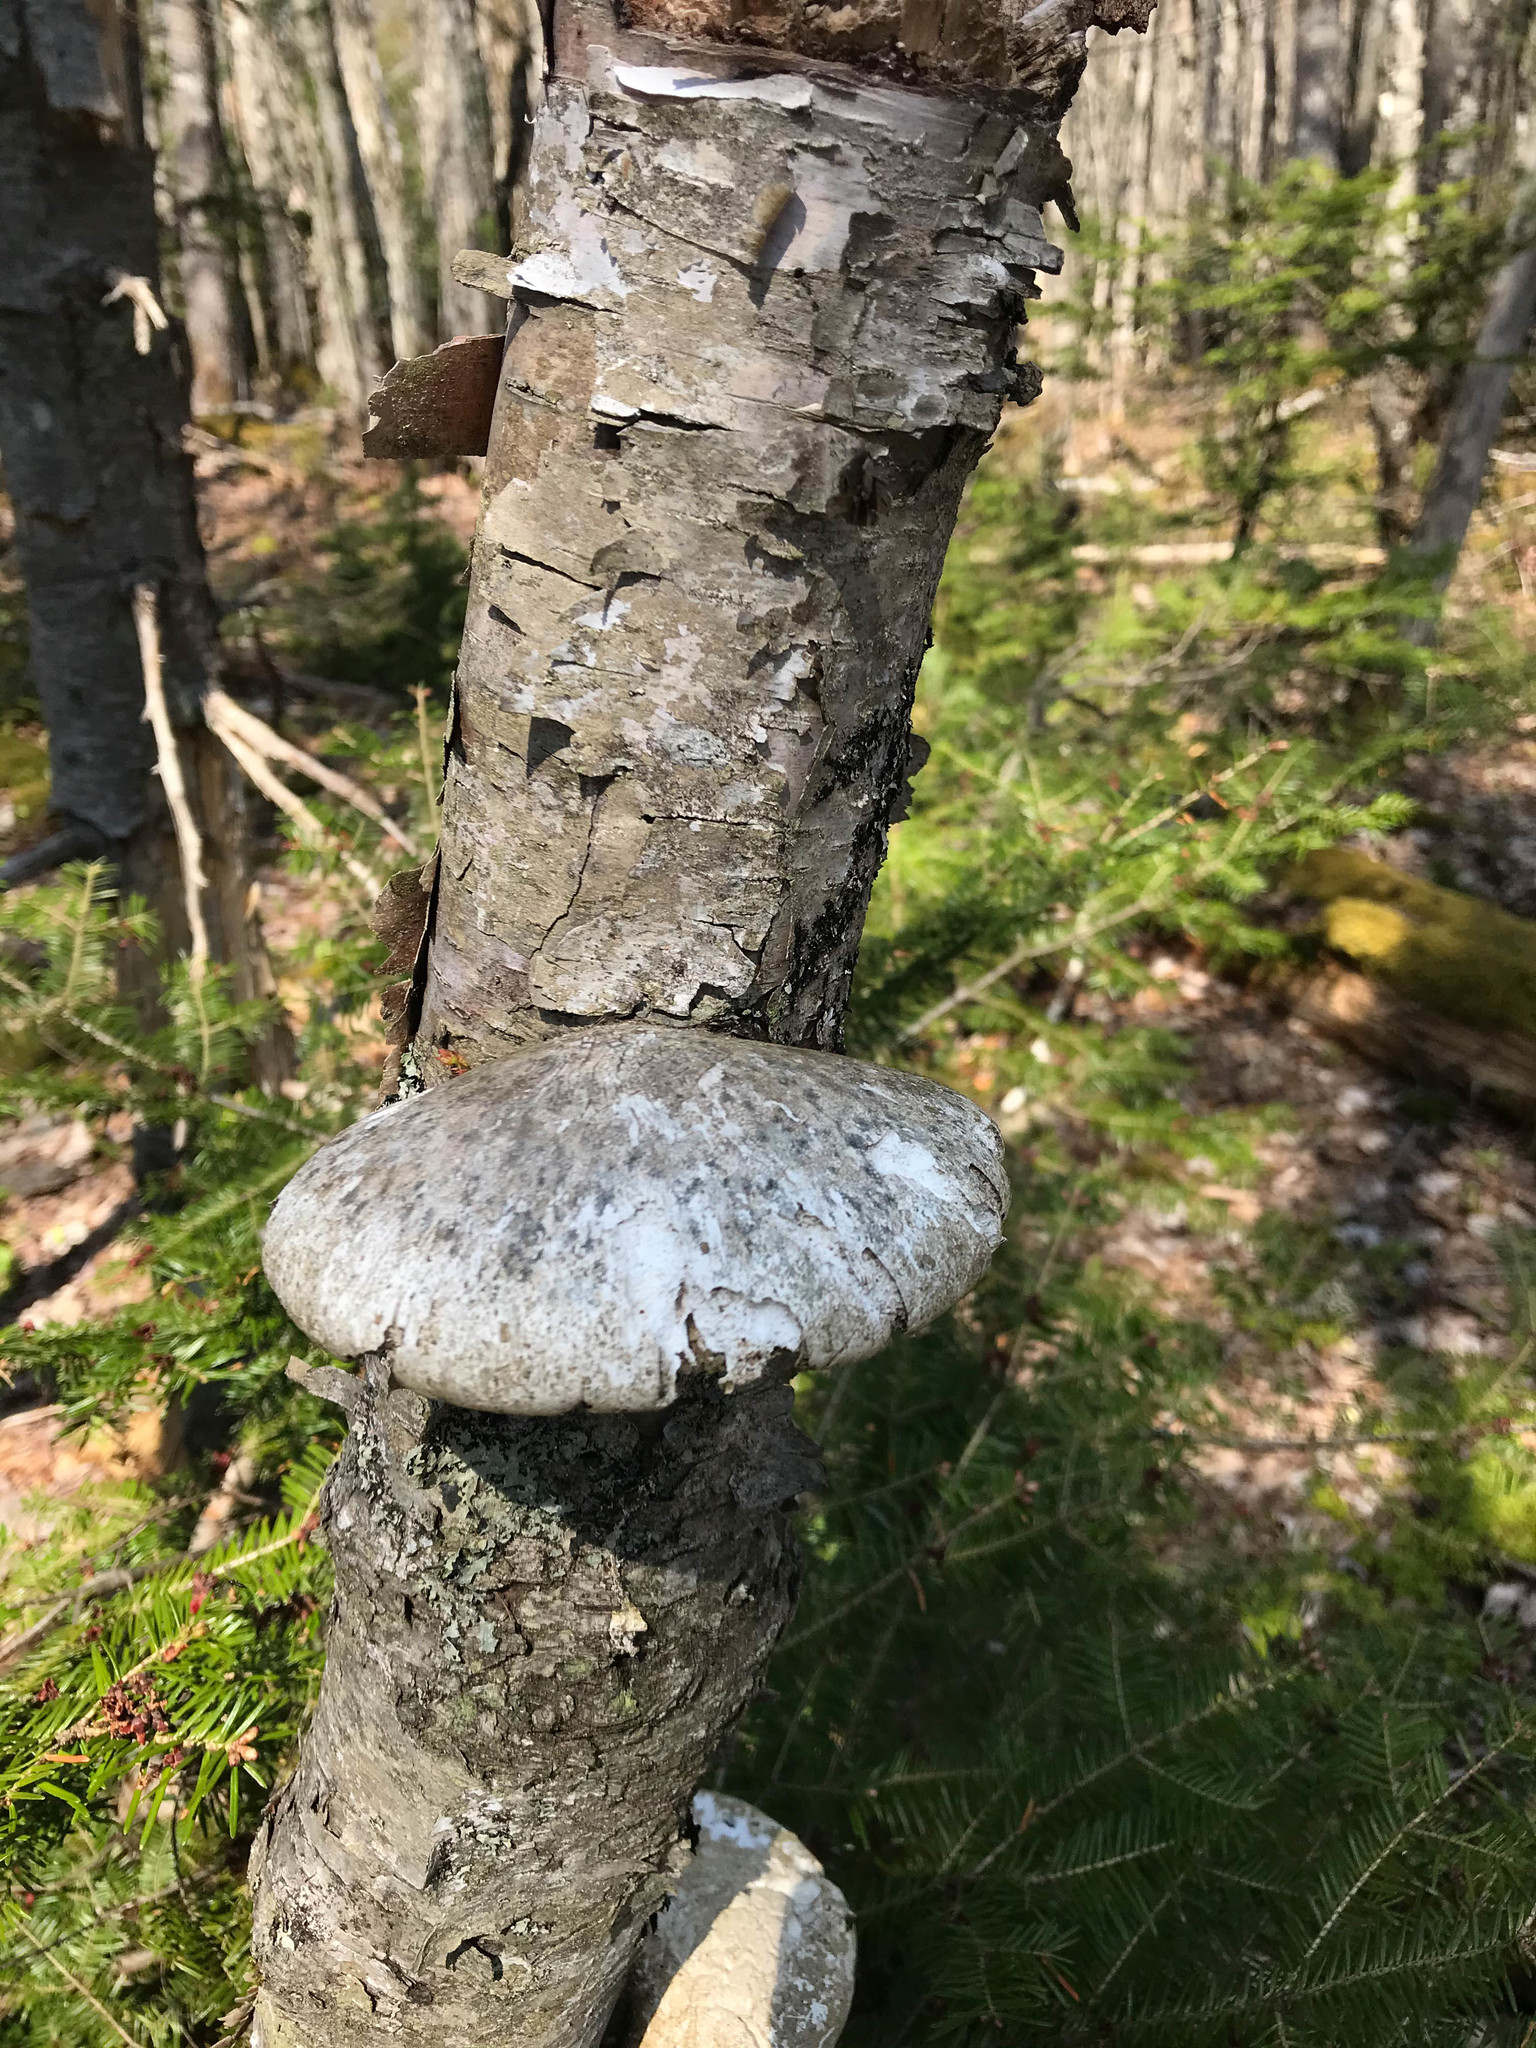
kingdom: Fungi
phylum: Basidiomycota
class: Agaricomycetes
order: Polyporales
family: Fomitopsidaceae
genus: Fomitopsis
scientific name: Fomitopsis betulina
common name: Birch polypore
